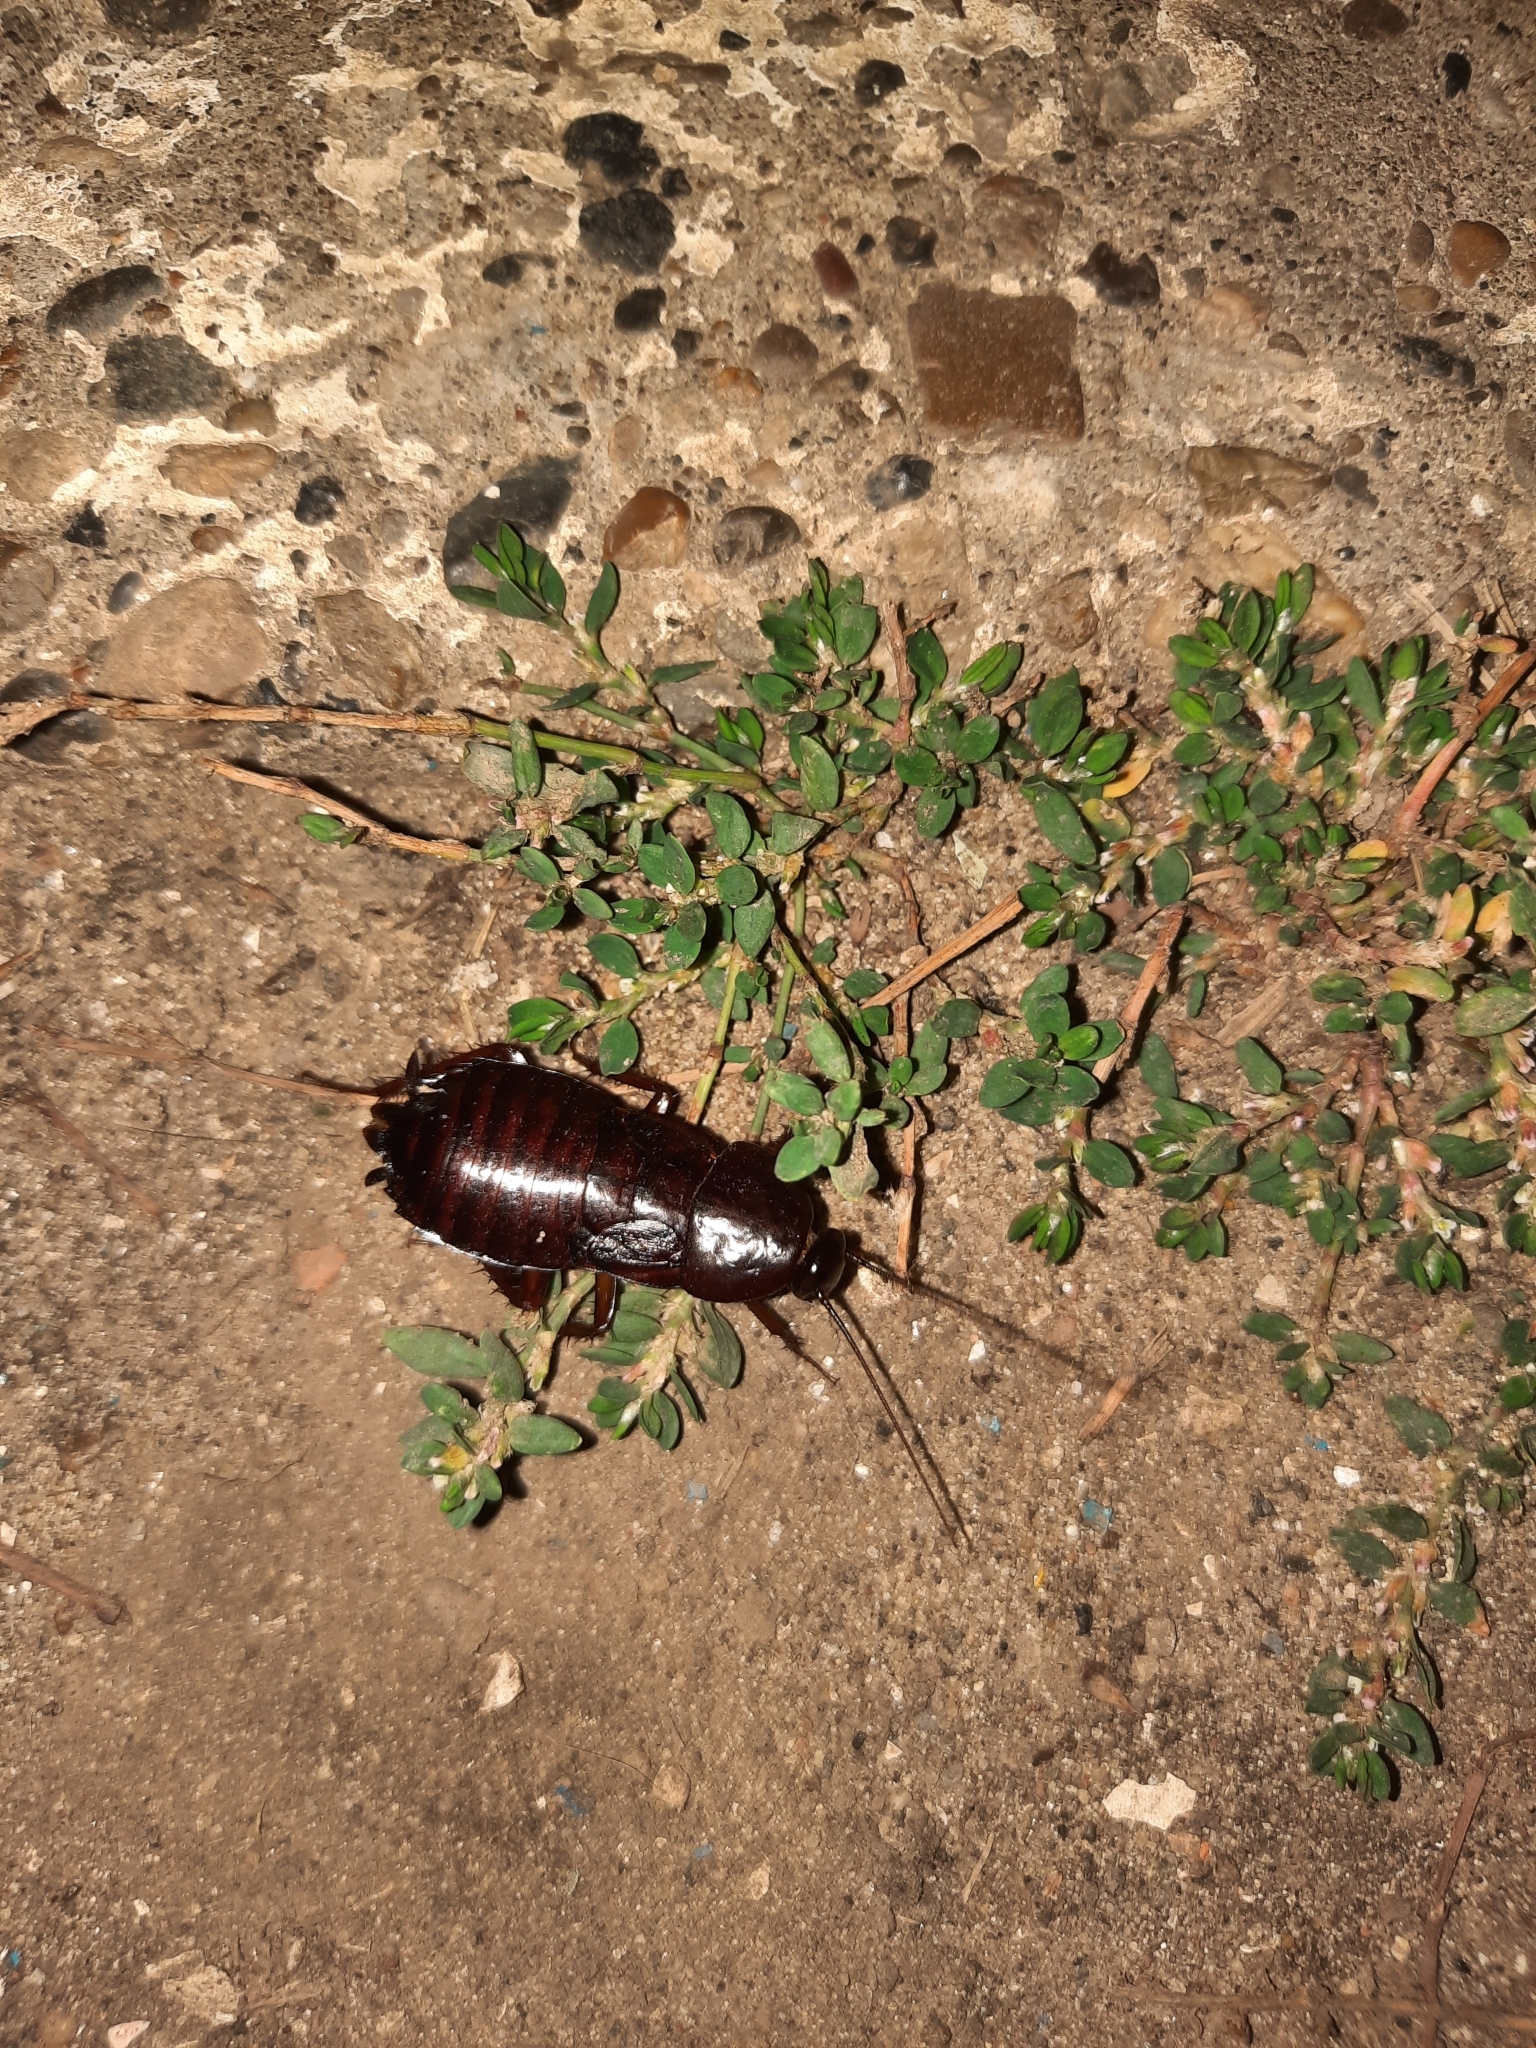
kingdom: Animalia
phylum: Arthropoda
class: Insecta
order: Blattodea
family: Blattidae
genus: Blatta
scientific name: Blatta orientalis
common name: Oriental cockroach
